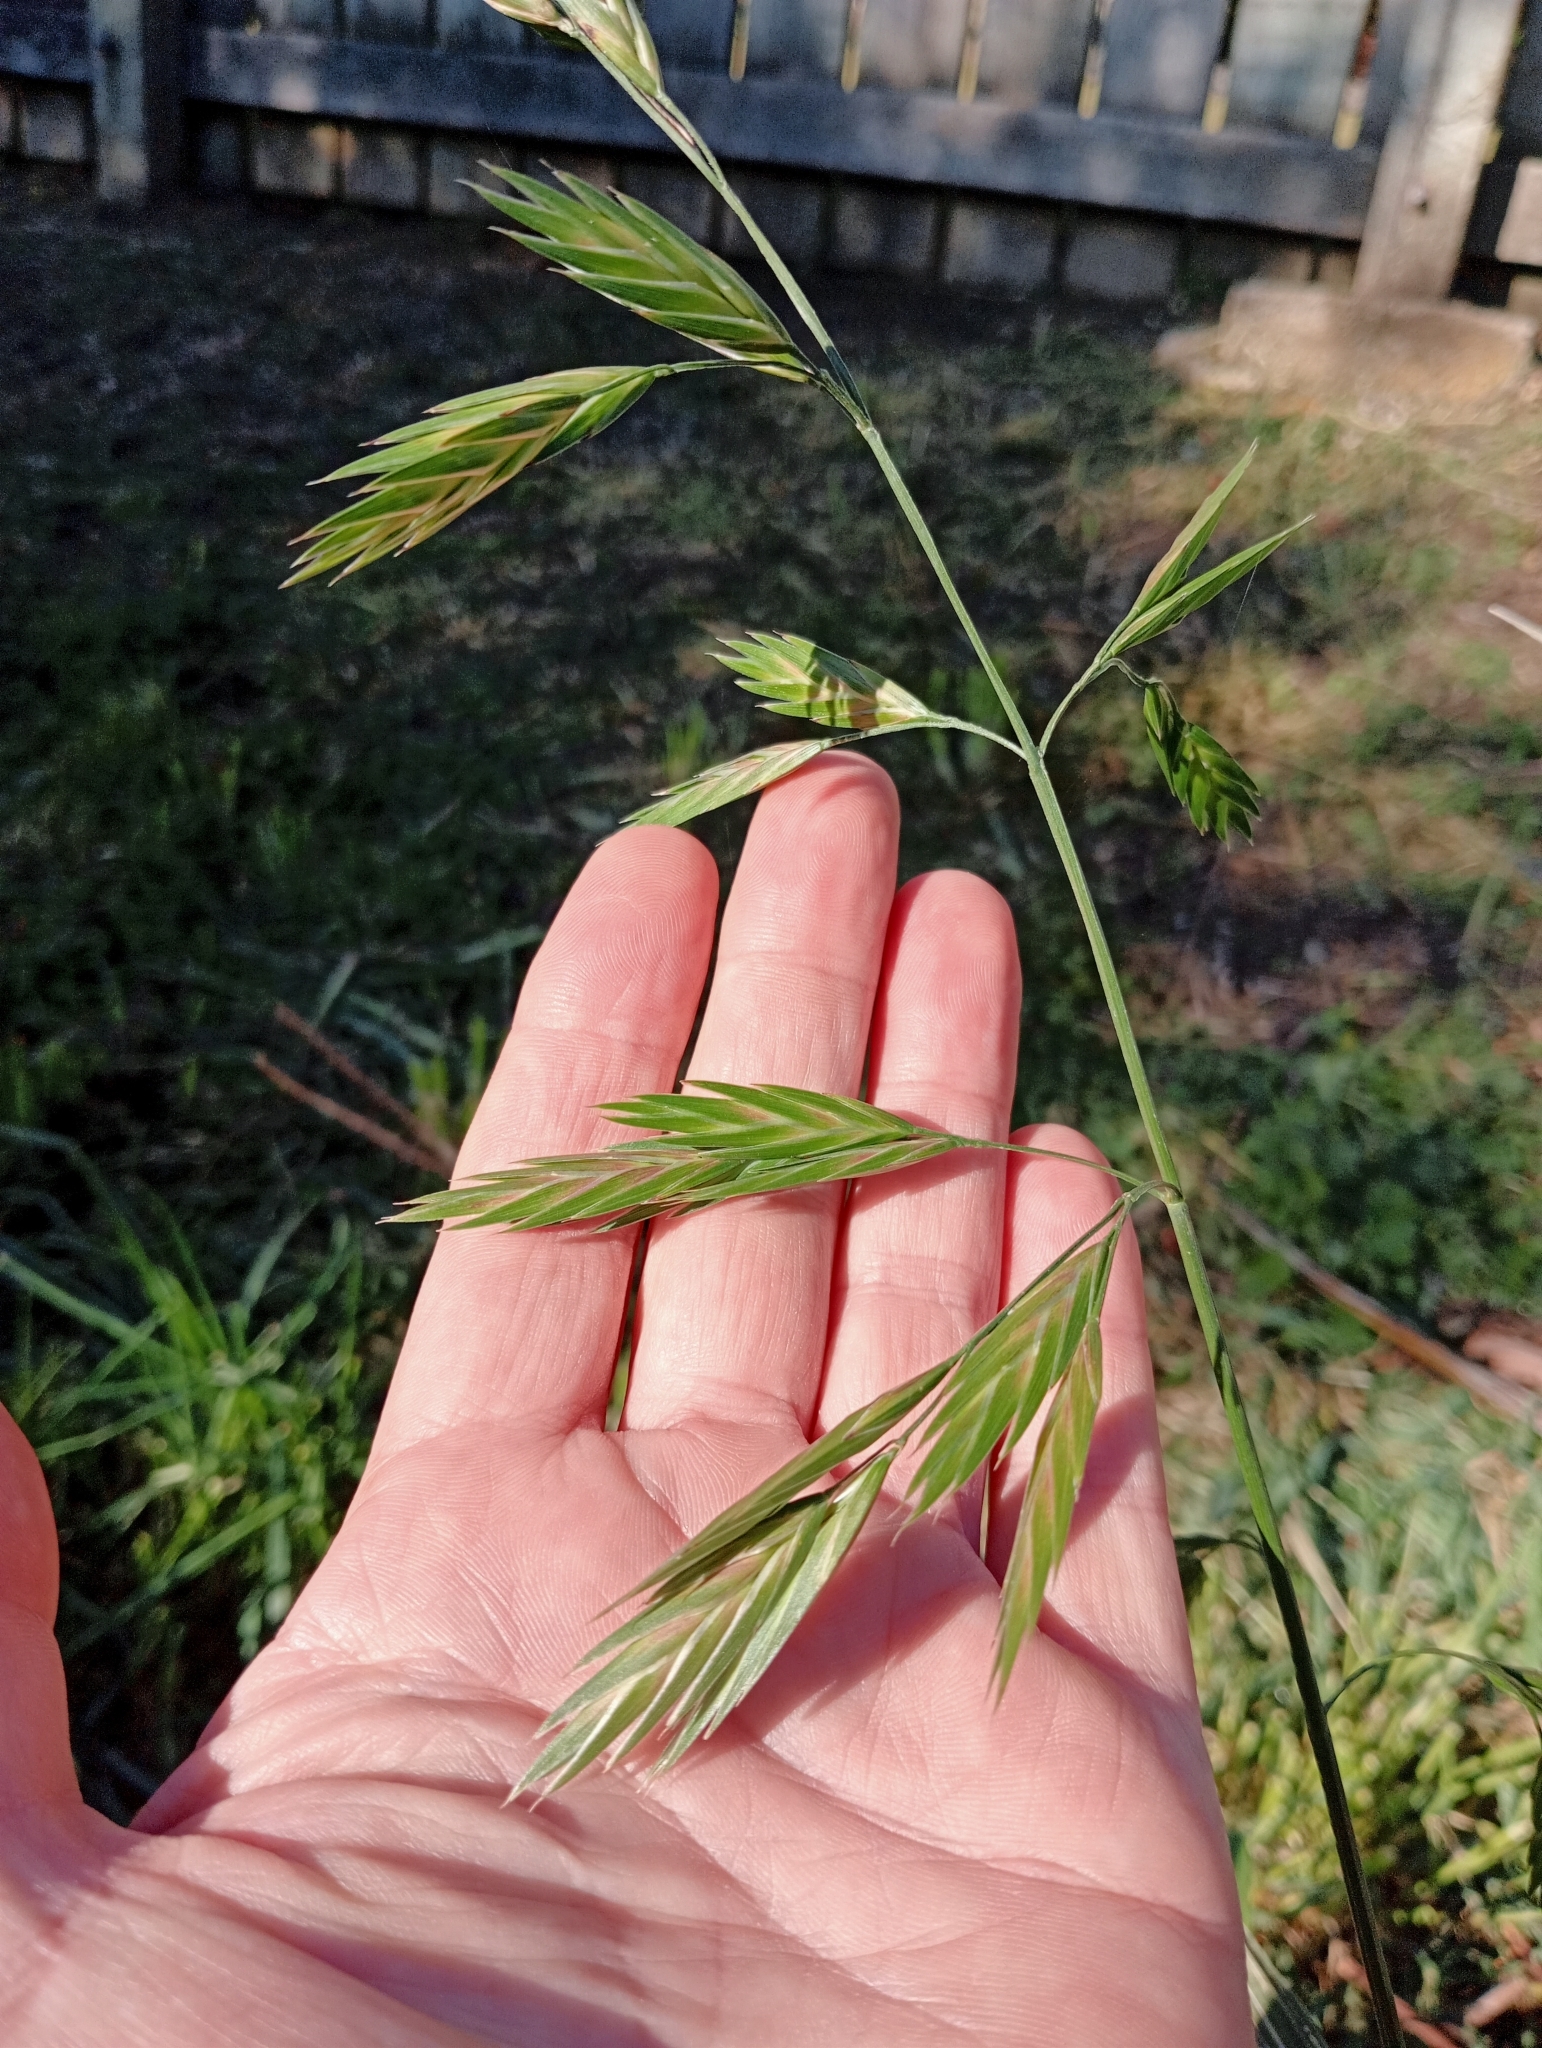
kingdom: Plantae
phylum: Tracheophyta
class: Liliopsida
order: Poales
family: Poaceae
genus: Bromus
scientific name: Bromus catharticus
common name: Rescuegrass
